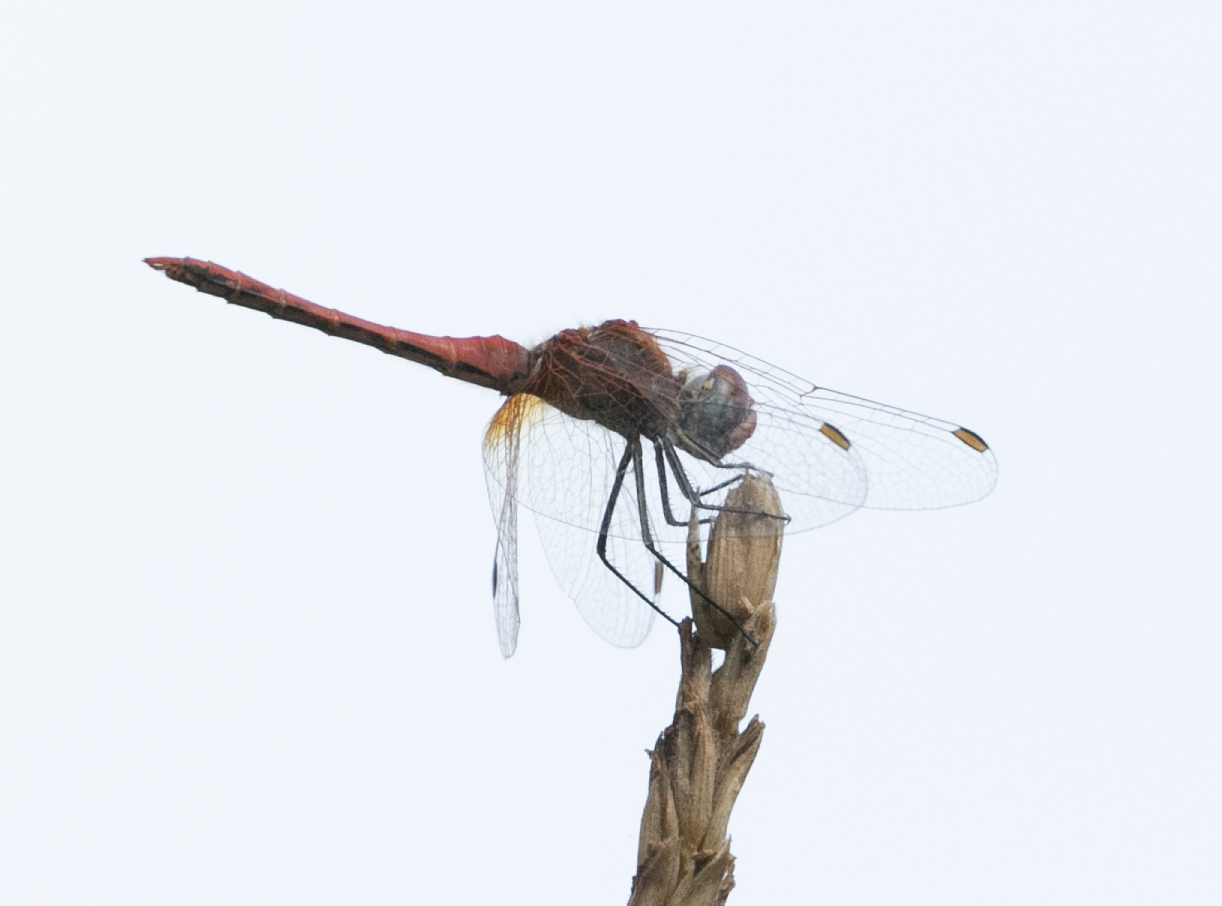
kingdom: Animalia
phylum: Arthropoda
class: Insecta
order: Odonata
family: Libellulidae
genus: Sympetrum
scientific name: Sympetrum fonscolombii
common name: Red-veined darter
